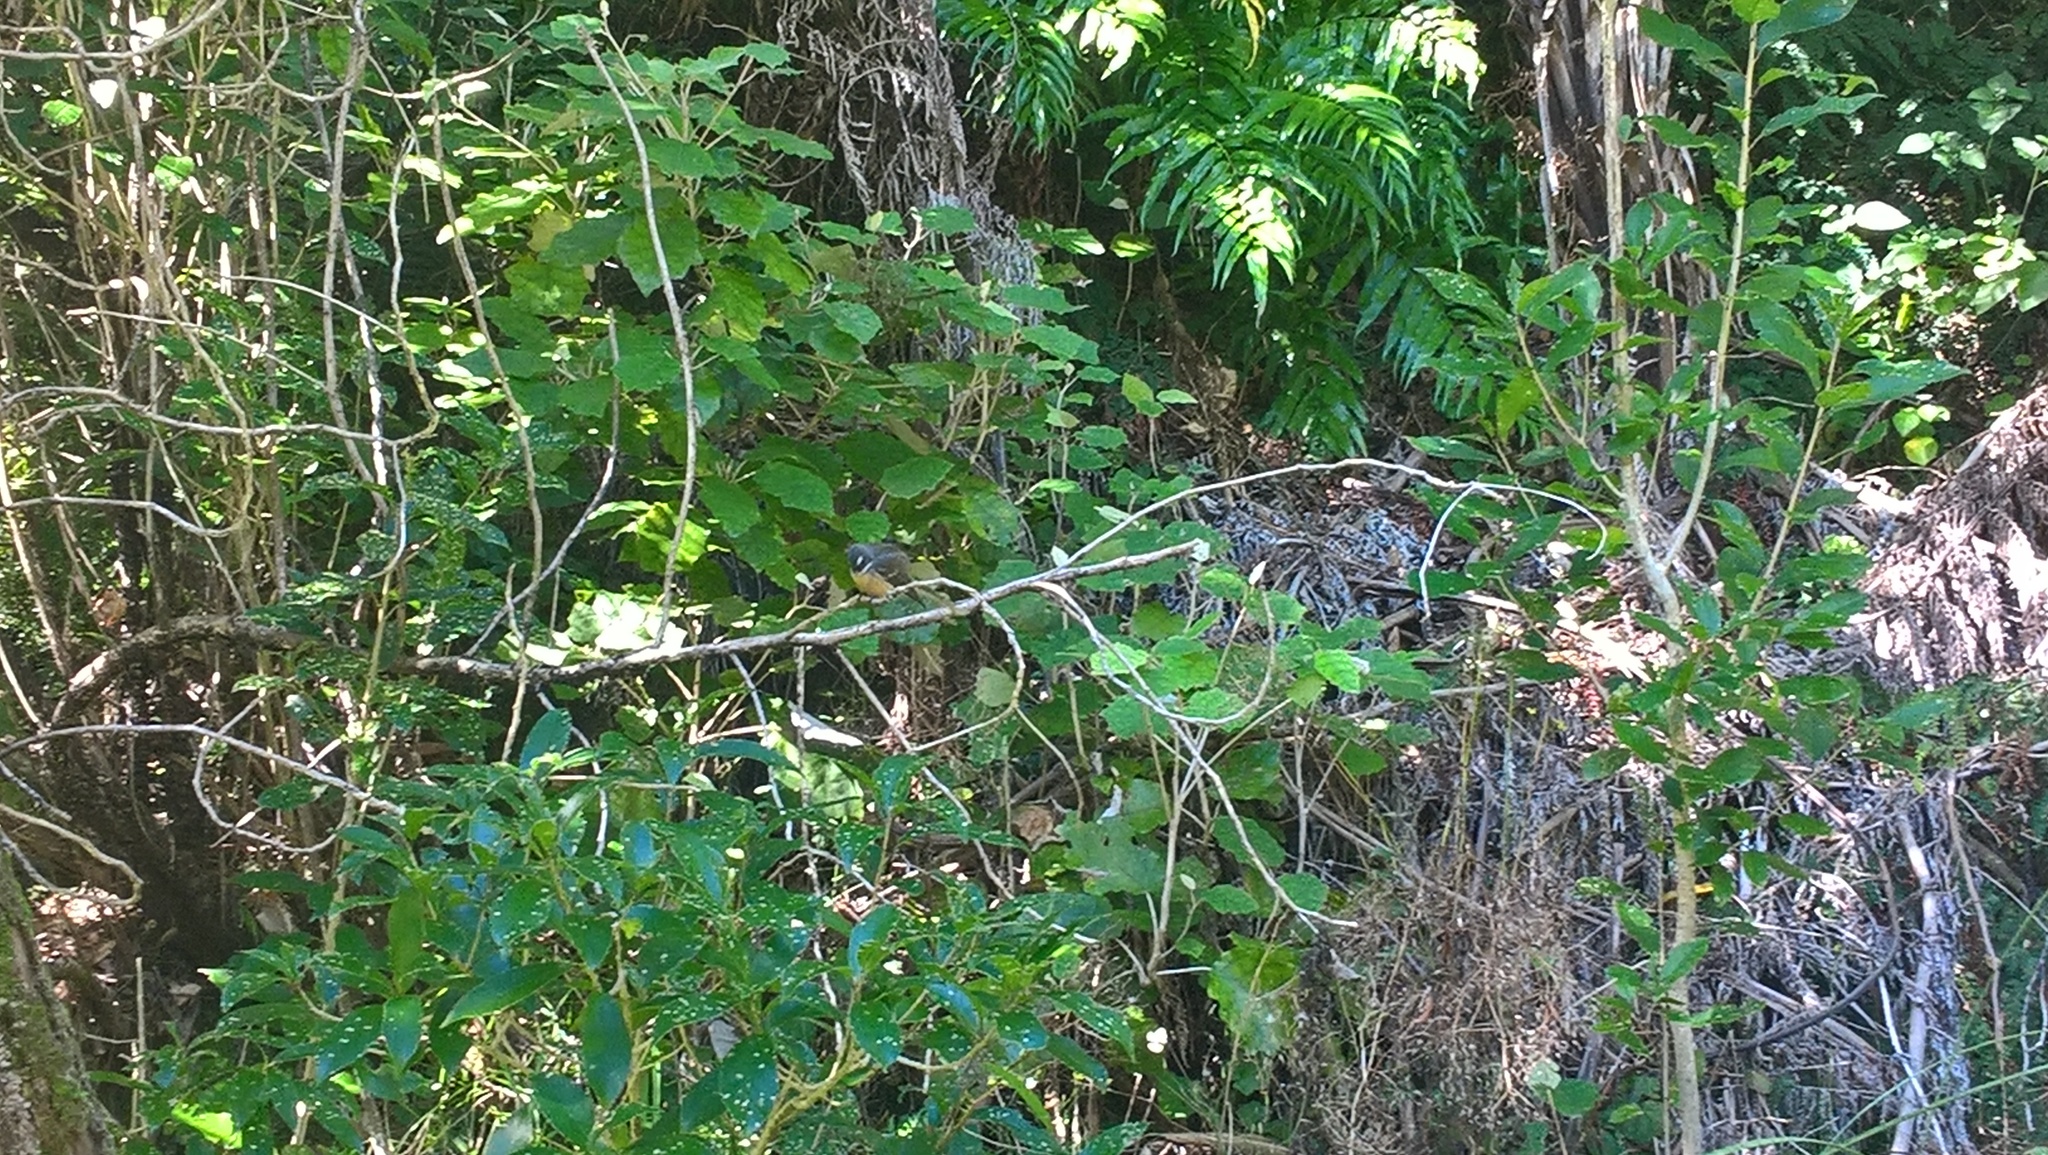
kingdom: Animalia
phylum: Chordata
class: Aves
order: Passeriformes
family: Rhipiduridae
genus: Rhipidura
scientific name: Rhipidura fuliginosa
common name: New zealand fantail
